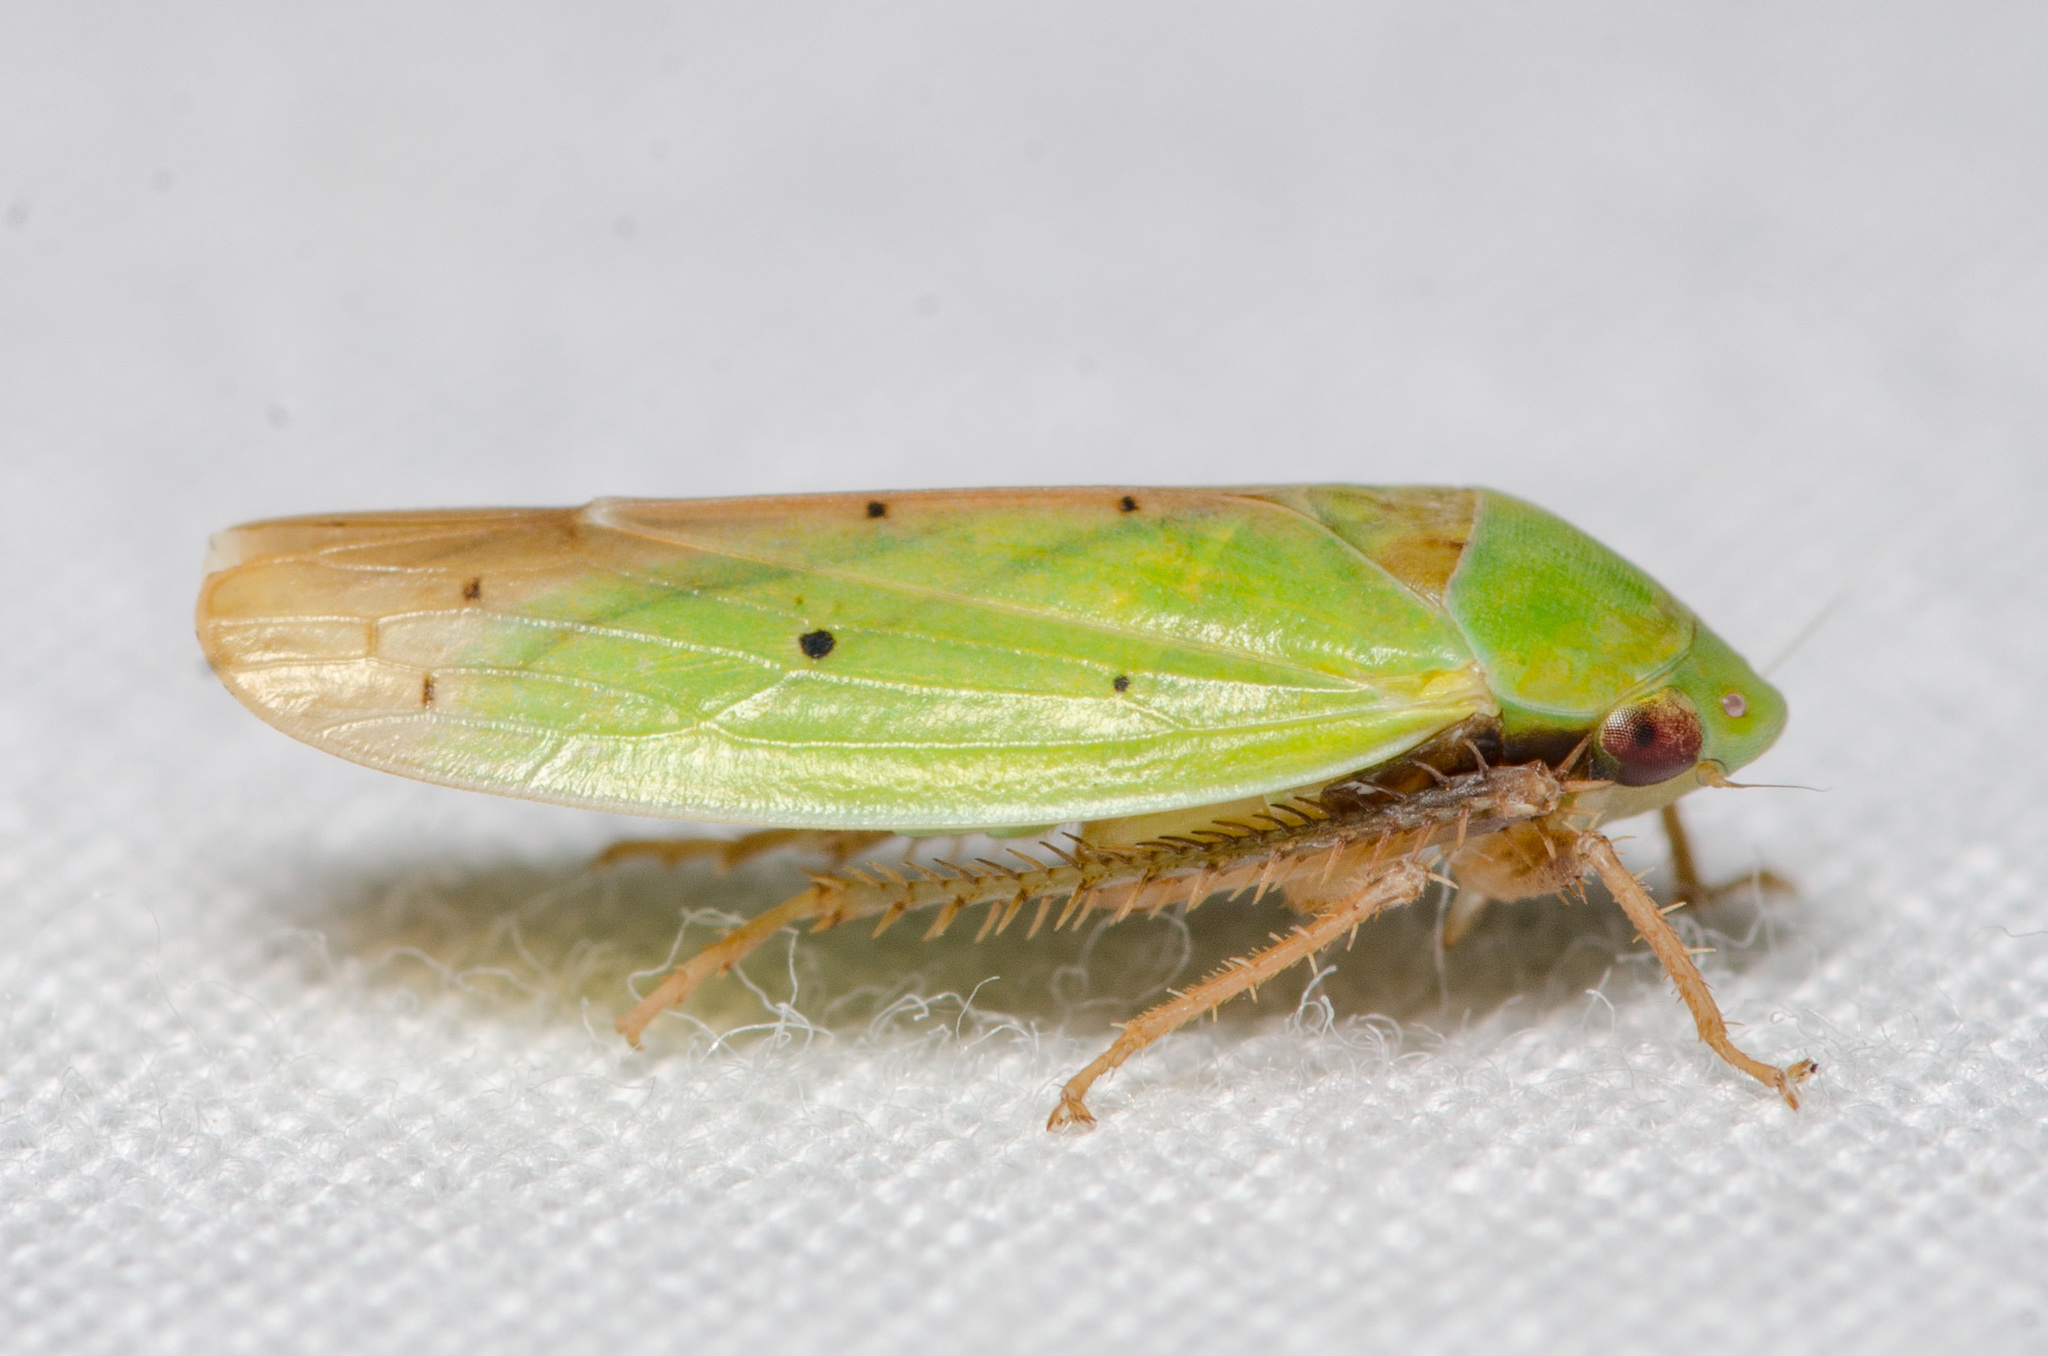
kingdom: Animalia
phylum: Arthropoda
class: Insecta
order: Hemiptera
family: Cicadellidae
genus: Ponana
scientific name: Ponana
